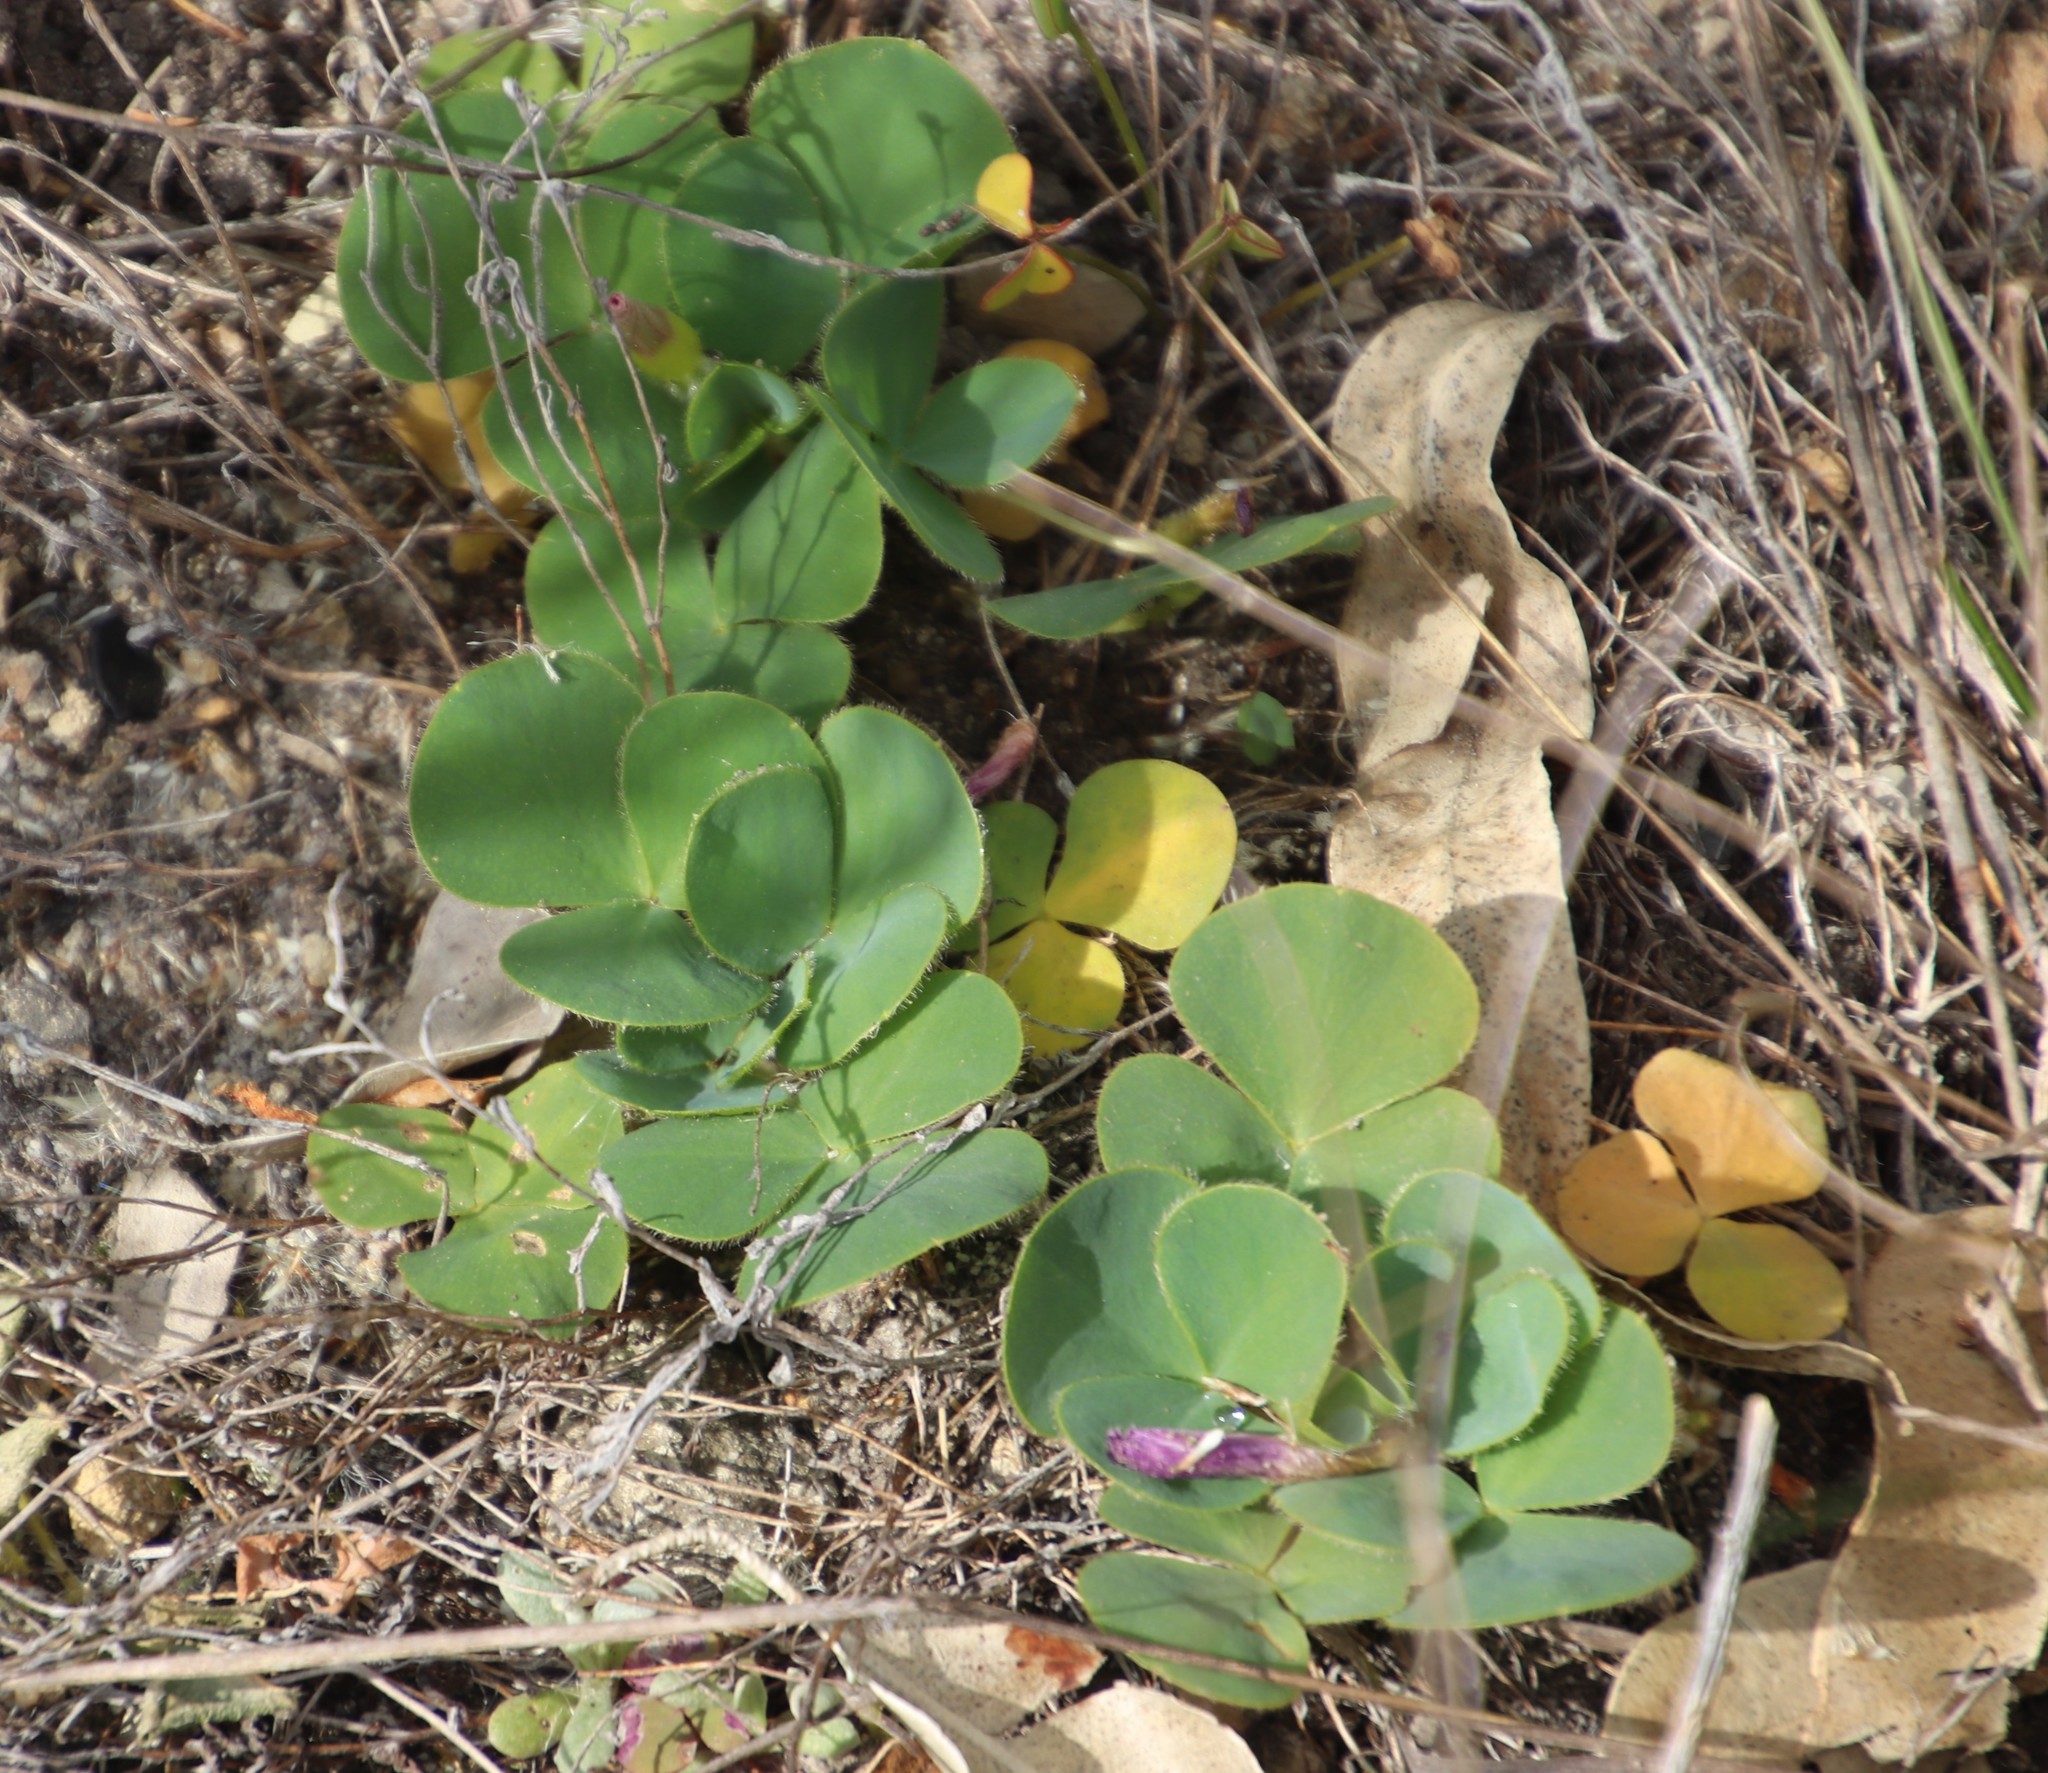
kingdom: Plantae
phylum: Tracheophyta
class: Magnoliopsida
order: Oxalidales
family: Oxalidaceae
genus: Oxalis
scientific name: Oxalis purpurea
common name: Purple woodsorrel
